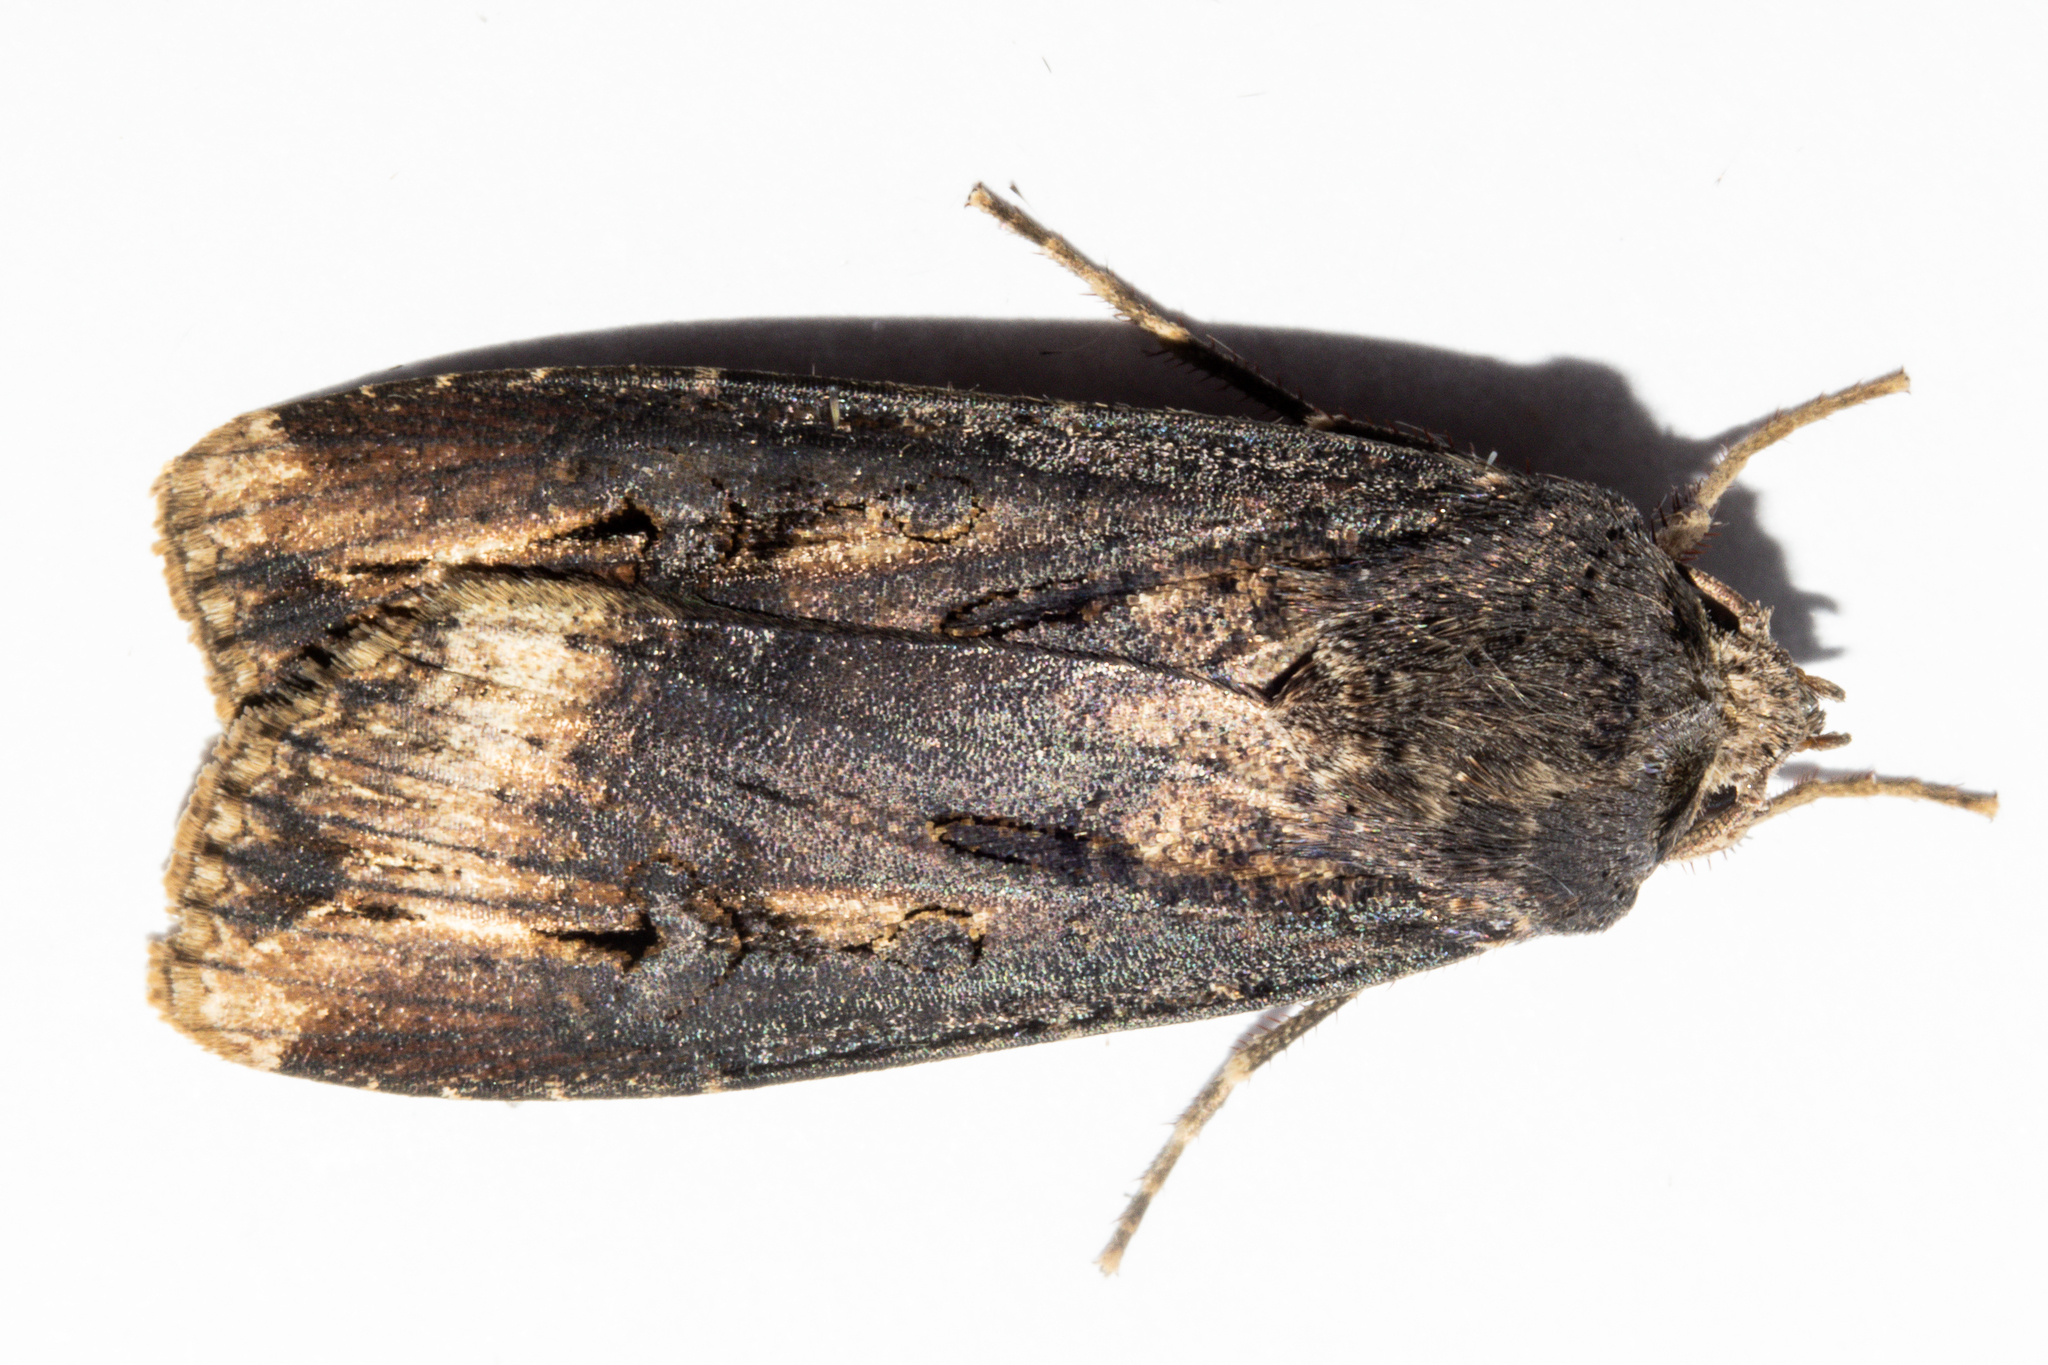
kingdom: Animalia
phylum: Arthropoda
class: Insecta
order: Lepidoptera
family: Noctuidae
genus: Agrotis
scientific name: Agrotis ipsilon
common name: Dark sword-grass
